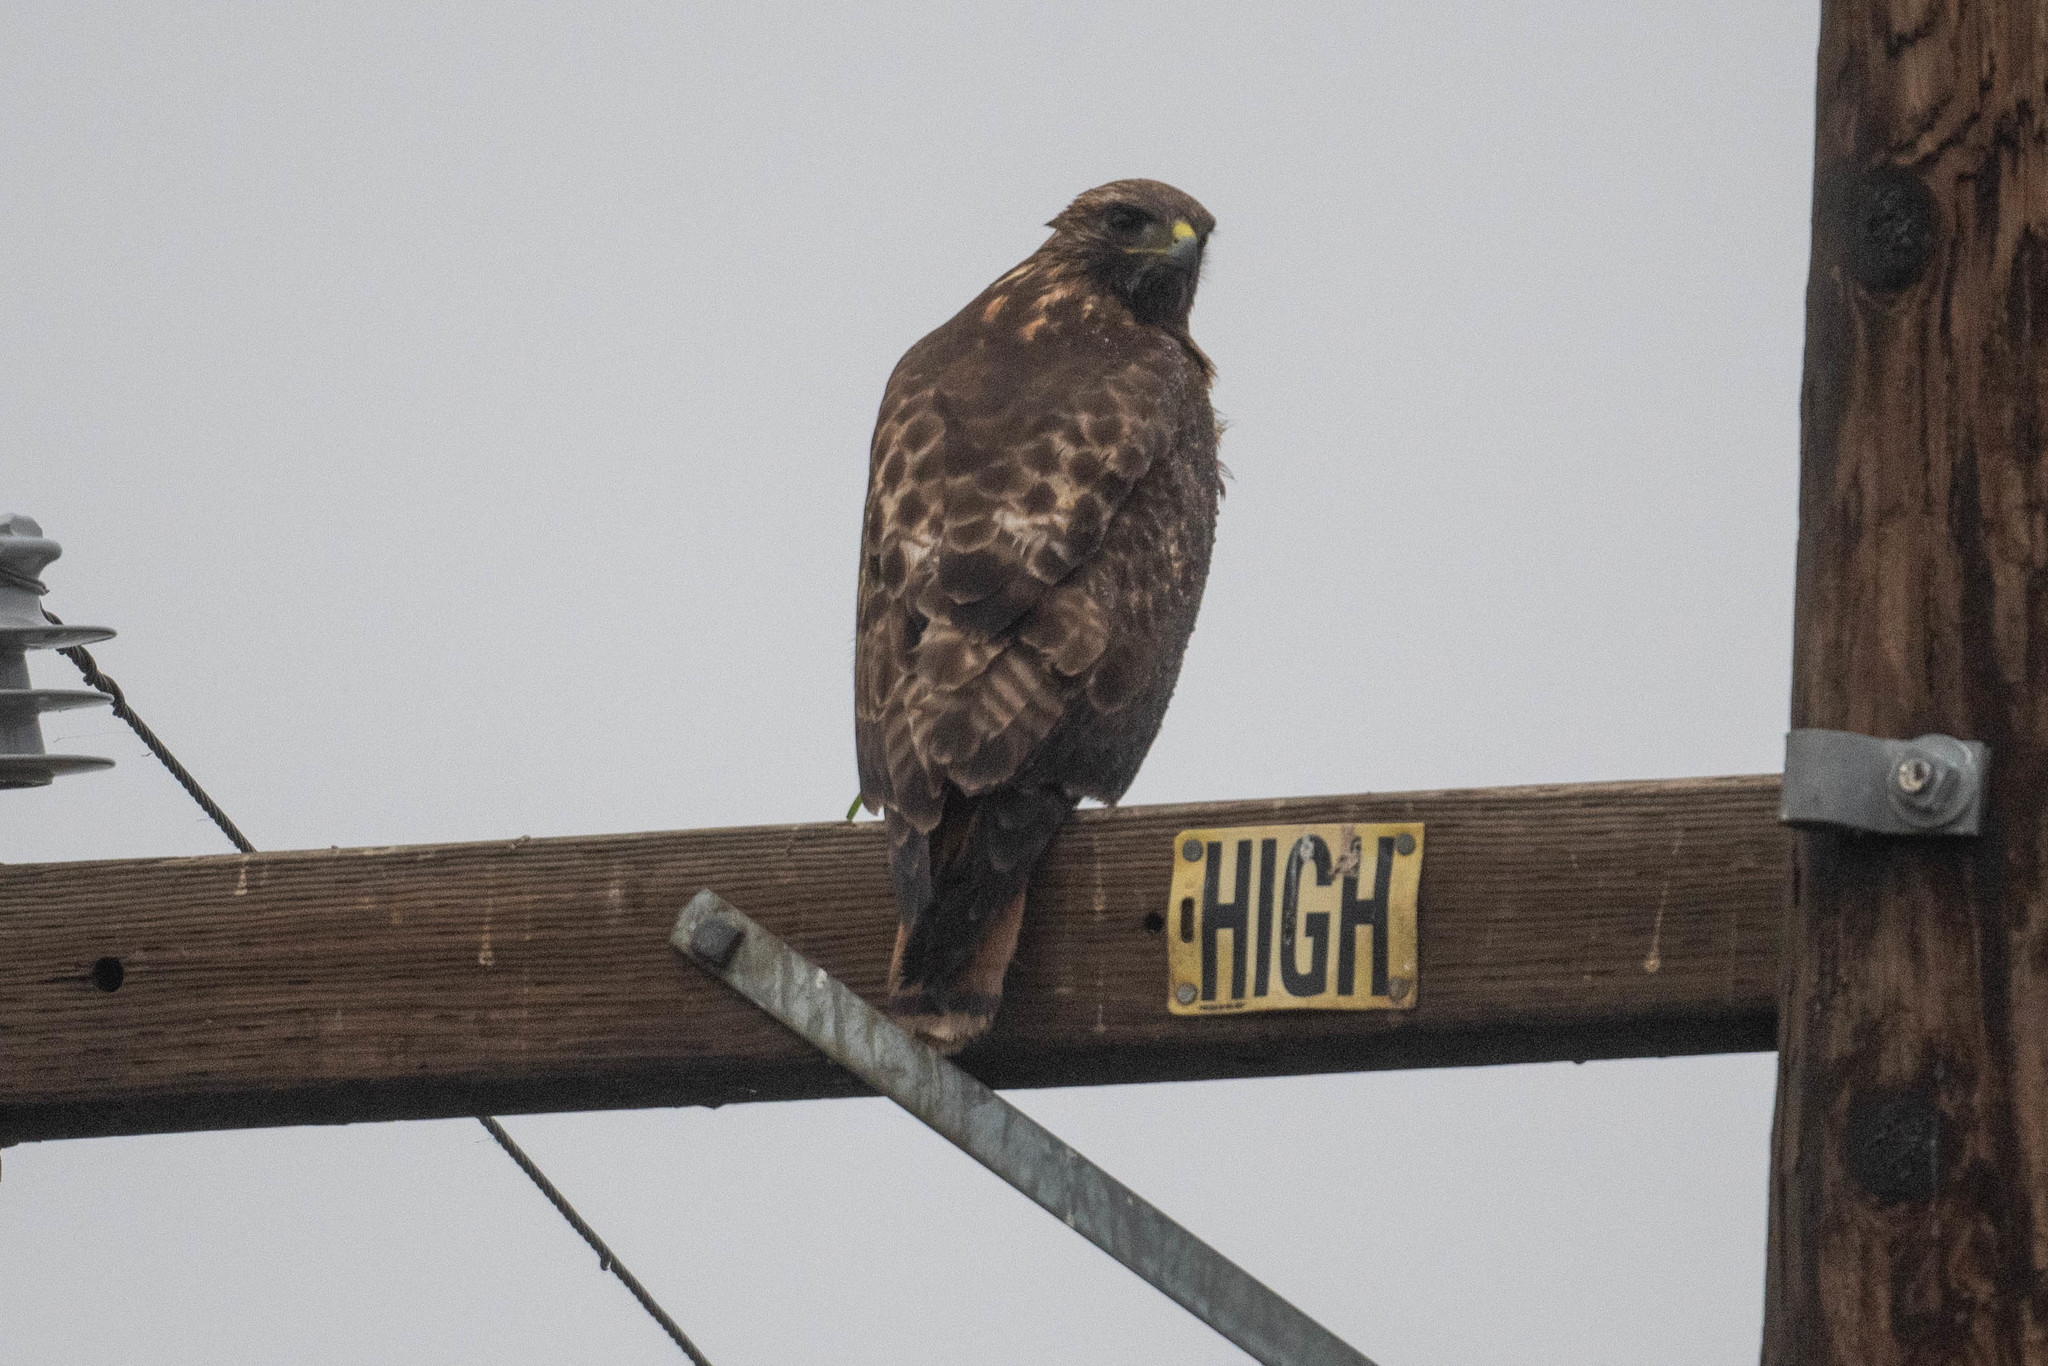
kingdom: Animalia
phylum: Chordata
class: Aves
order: Accipitriformes
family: Accipitridae
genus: Buteo
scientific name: Buteo jamaicensis
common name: Red-tailed hawk
